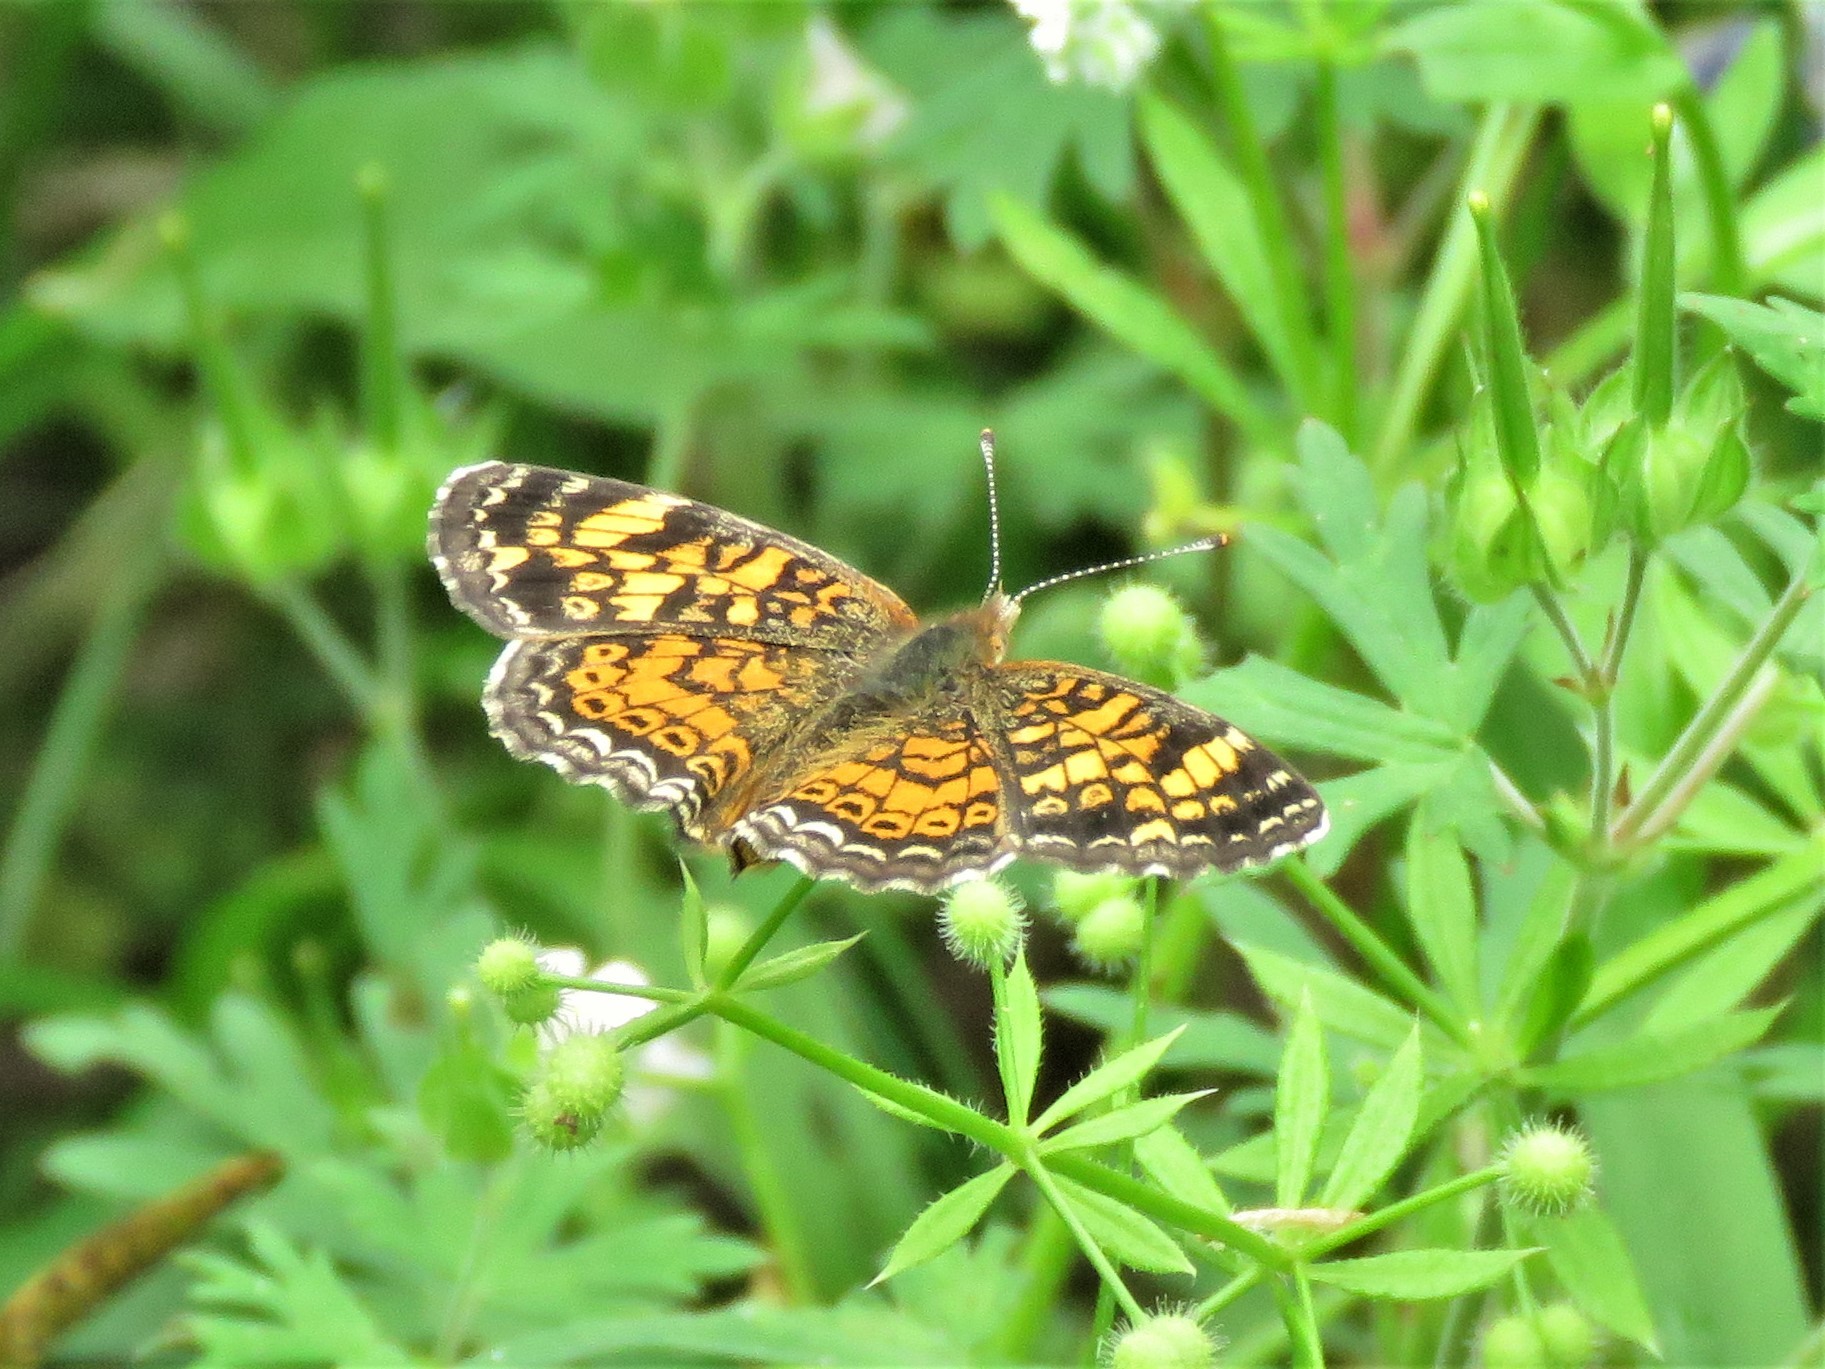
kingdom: Animalia
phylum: Arthropoda
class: Insecta
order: Lepidoptera
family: Nymphalidae
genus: Phyciodes
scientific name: Phyciodes tharos
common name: Pearl crescent
